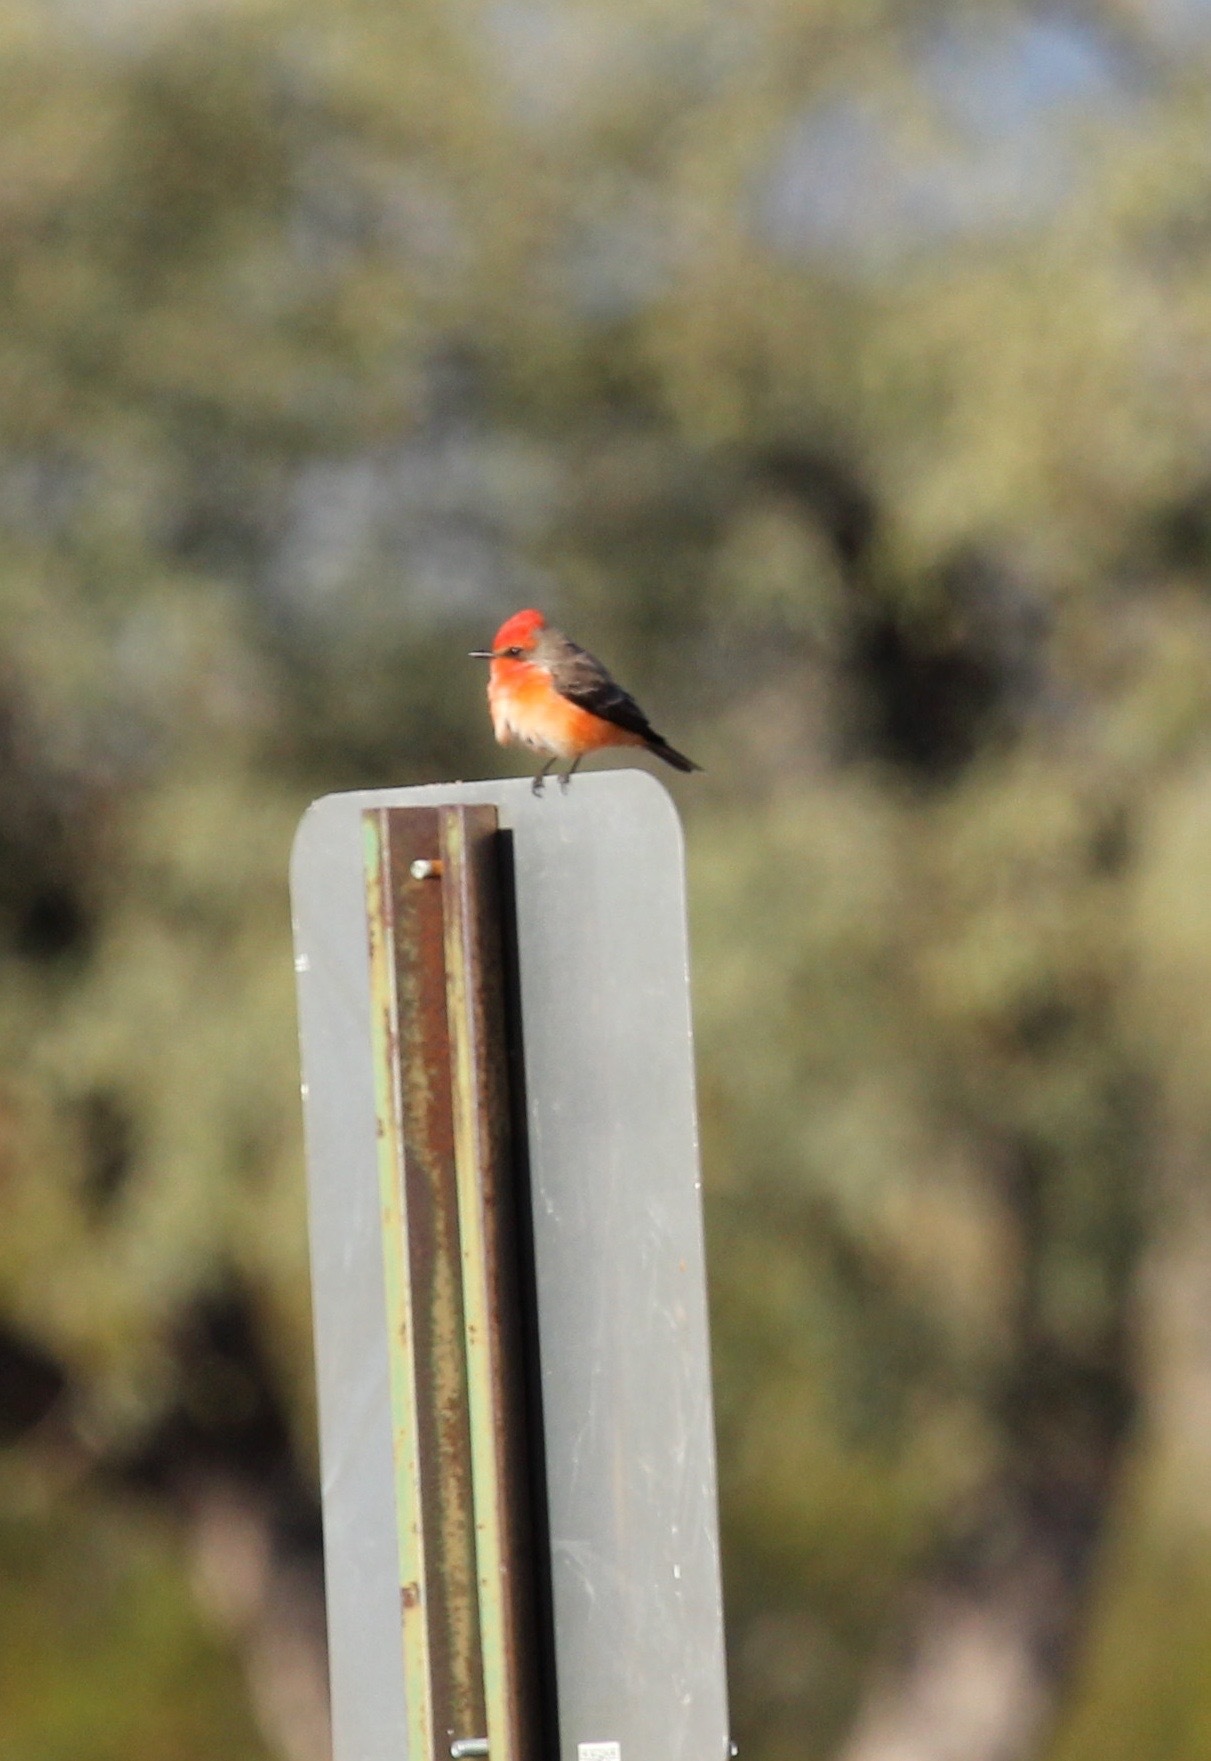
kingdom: Animalia
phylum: Chordata
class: Aves
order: Passeriformes
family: Tyrannidae
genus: Pyrocephalus
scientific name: Pyrocephalus rubinus
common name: Vermilion flycatcher
